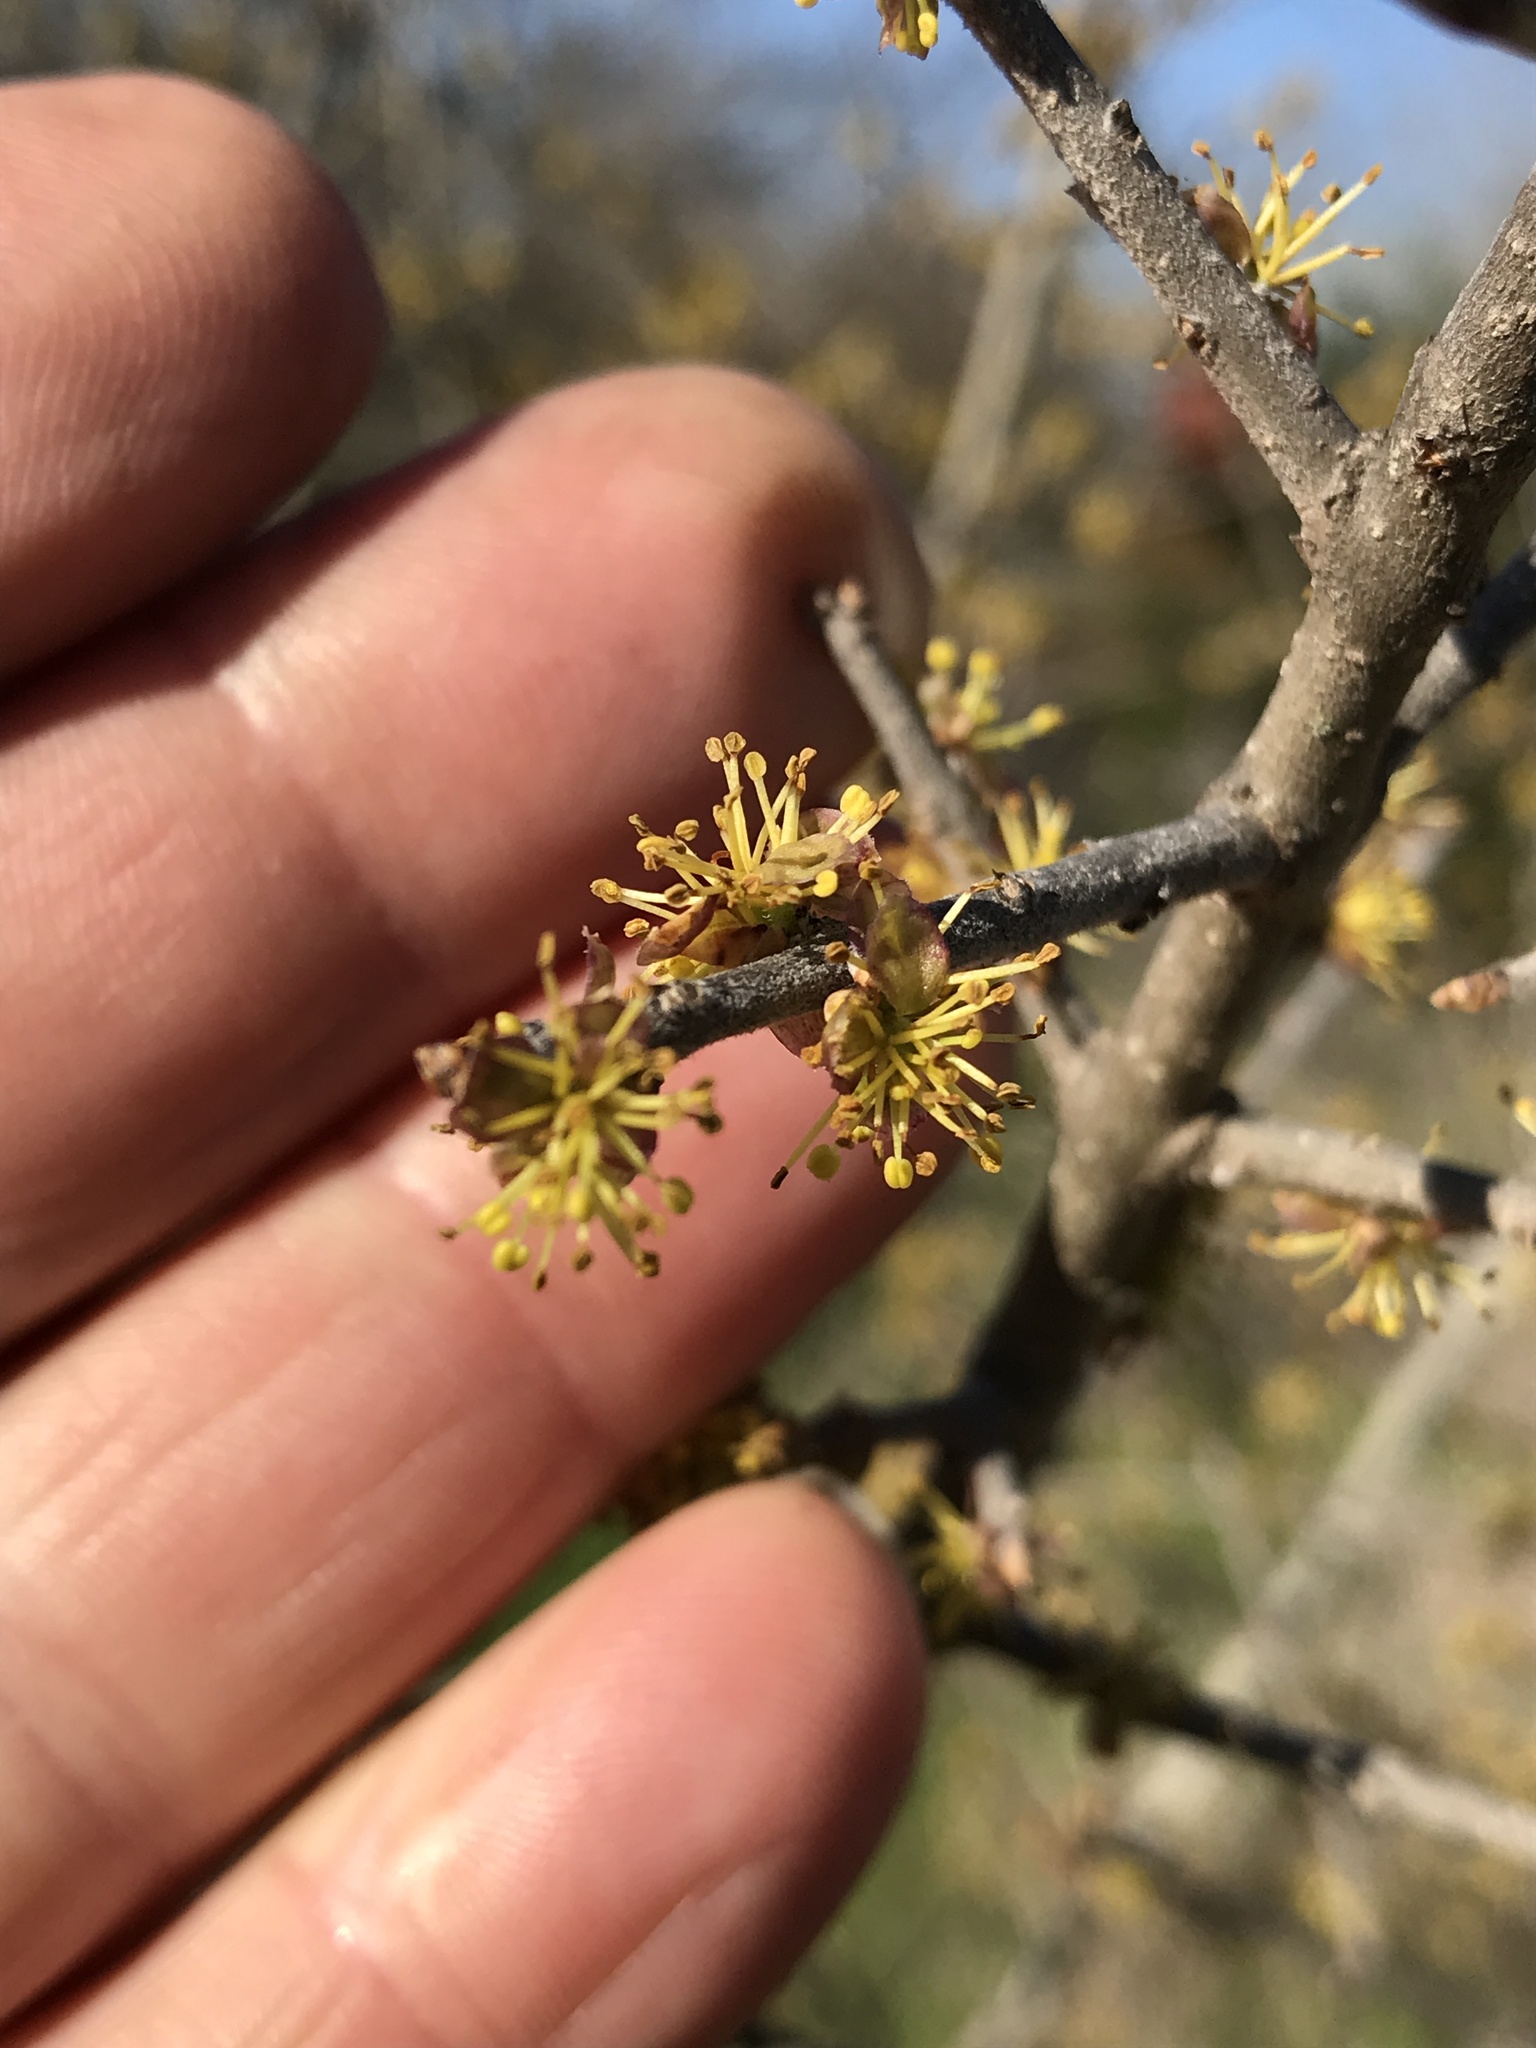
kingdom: Plantae
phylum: Tracheophyta
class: Magnoliopsida
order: Lamiales
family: Oleaceae
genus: Forestiera
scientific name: Forestiera pubescens
